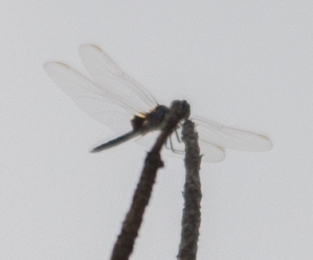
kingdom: Animalia
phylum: Arthropoda
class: Insecta
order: Odonata
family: Libellulidae
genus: Urothemis
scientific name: Urothemis edwardsii
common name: Blue basker
